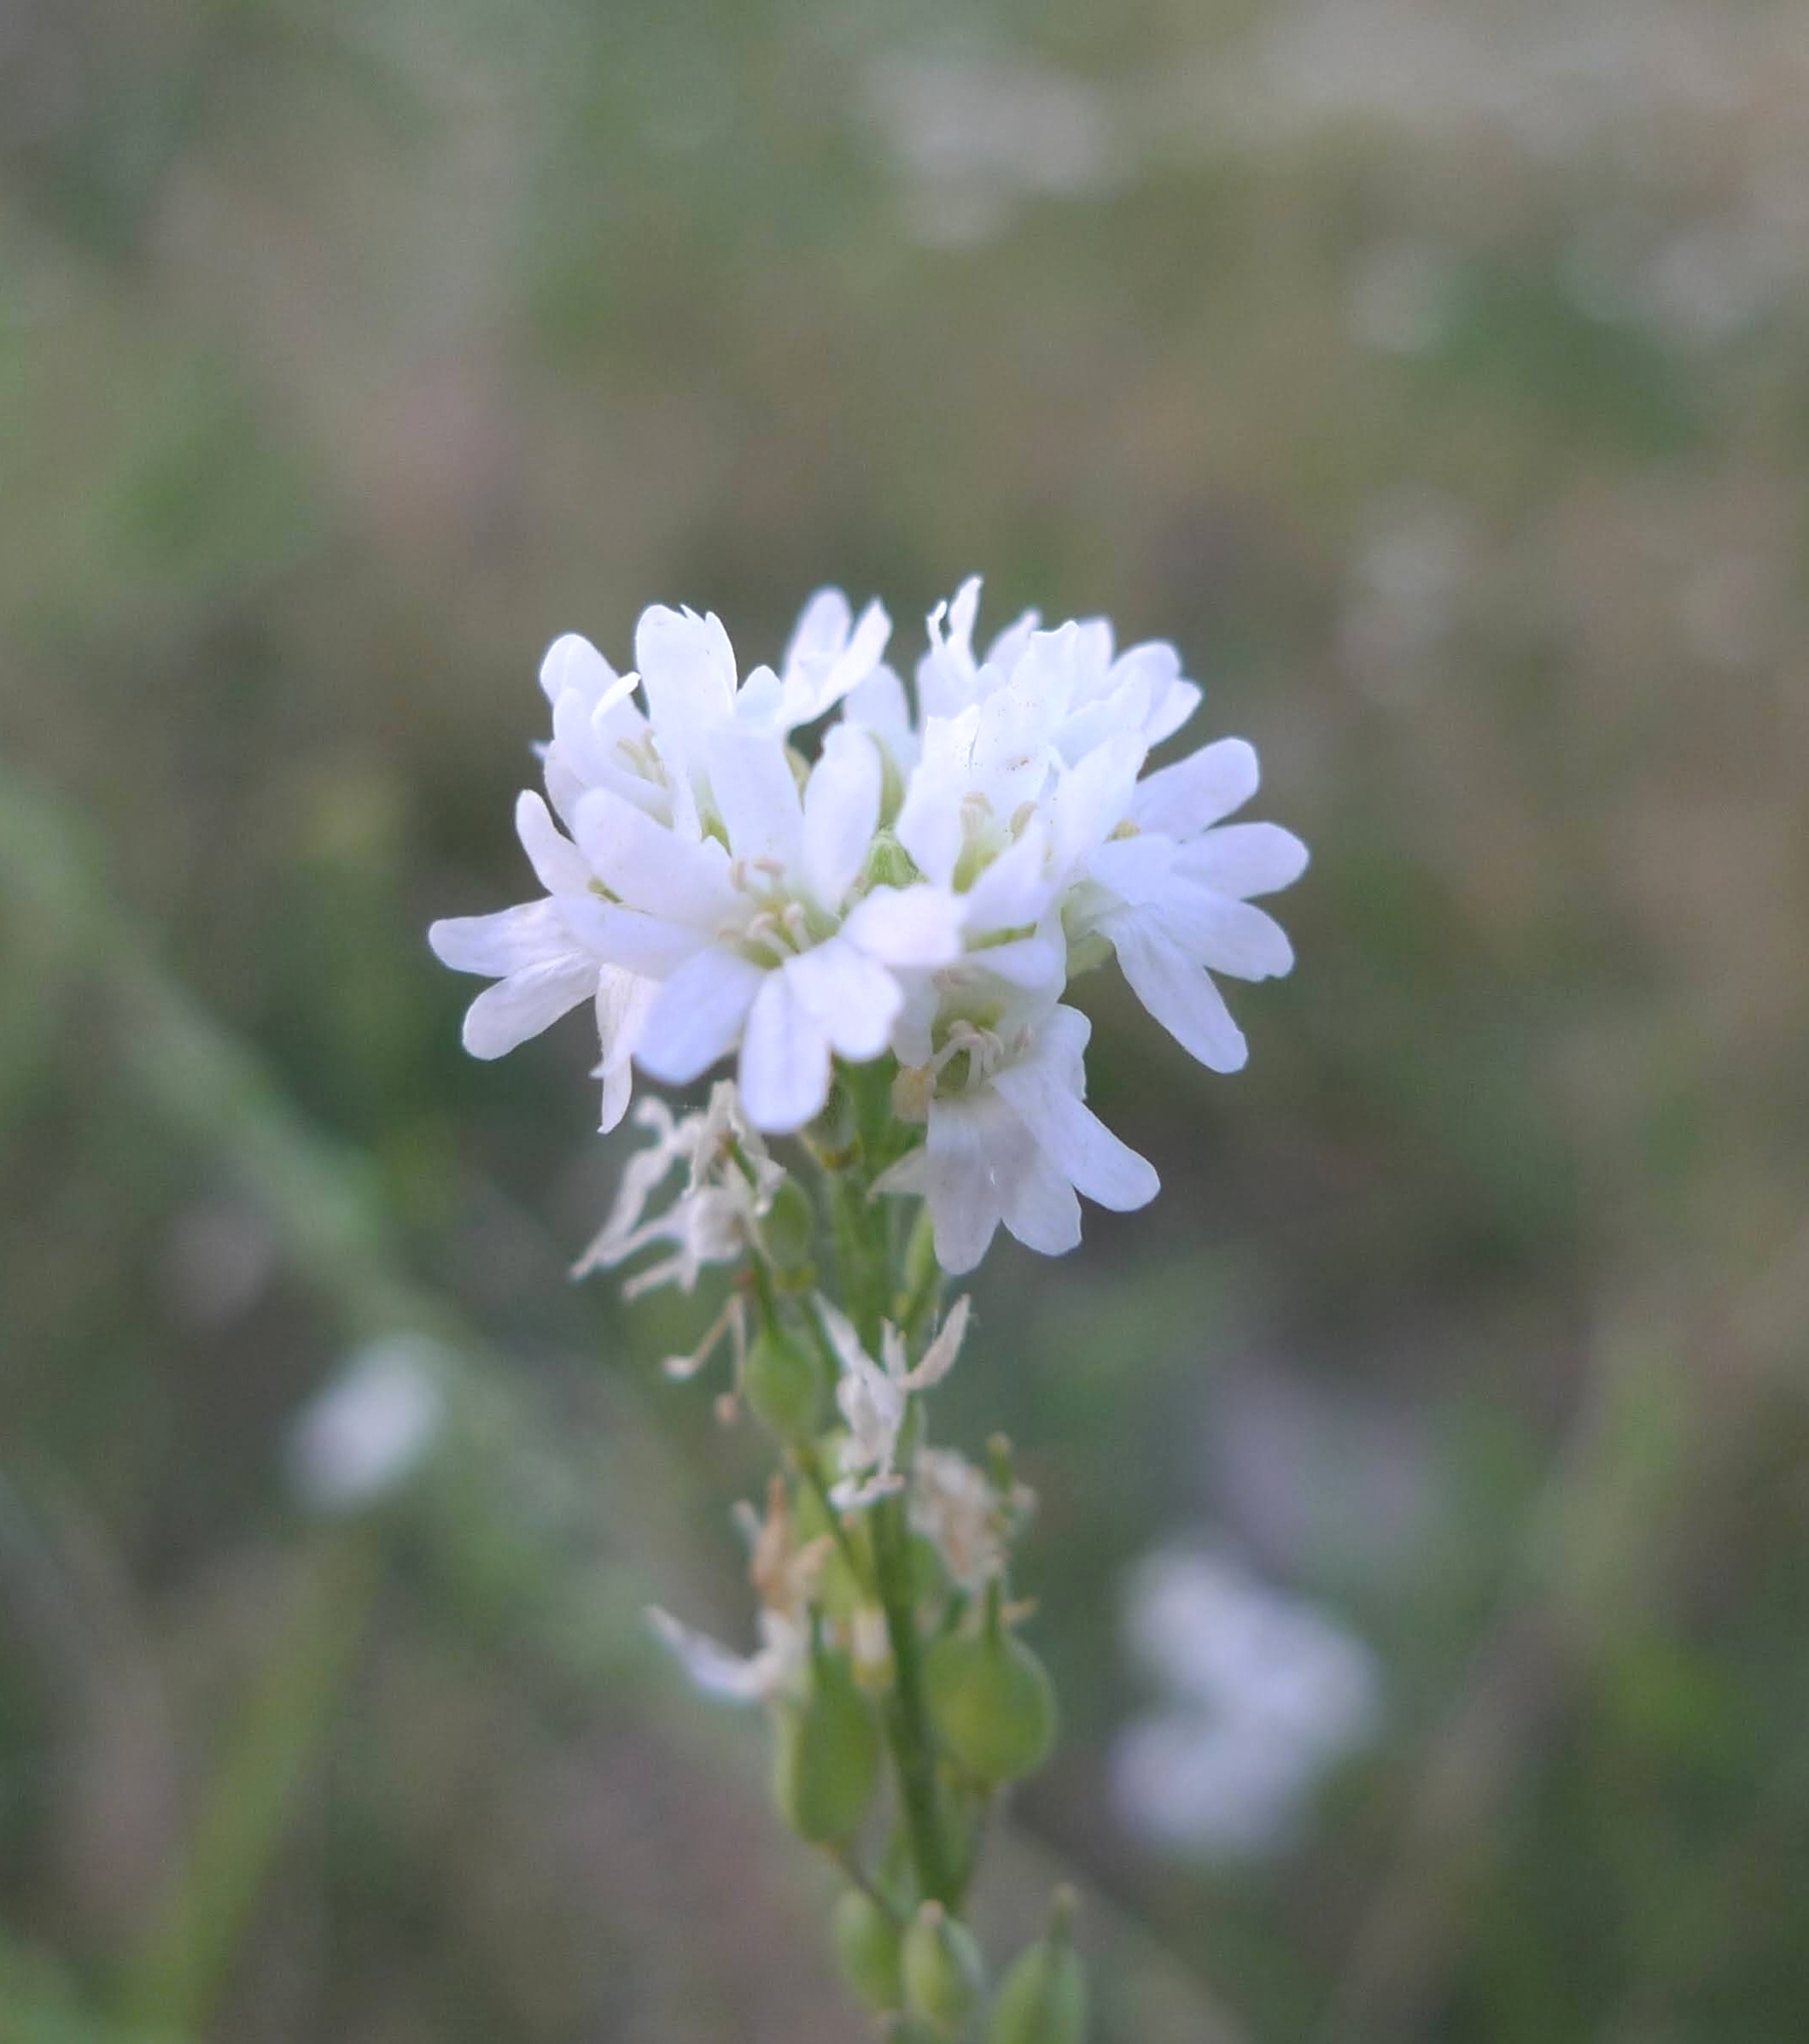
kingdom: Plantae
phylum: Tracheophyta
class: Magnoliopsida
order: Brassicales
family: Brassicaceae
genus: Berteroa
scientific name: Berteroa incana
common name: Hoary alison
